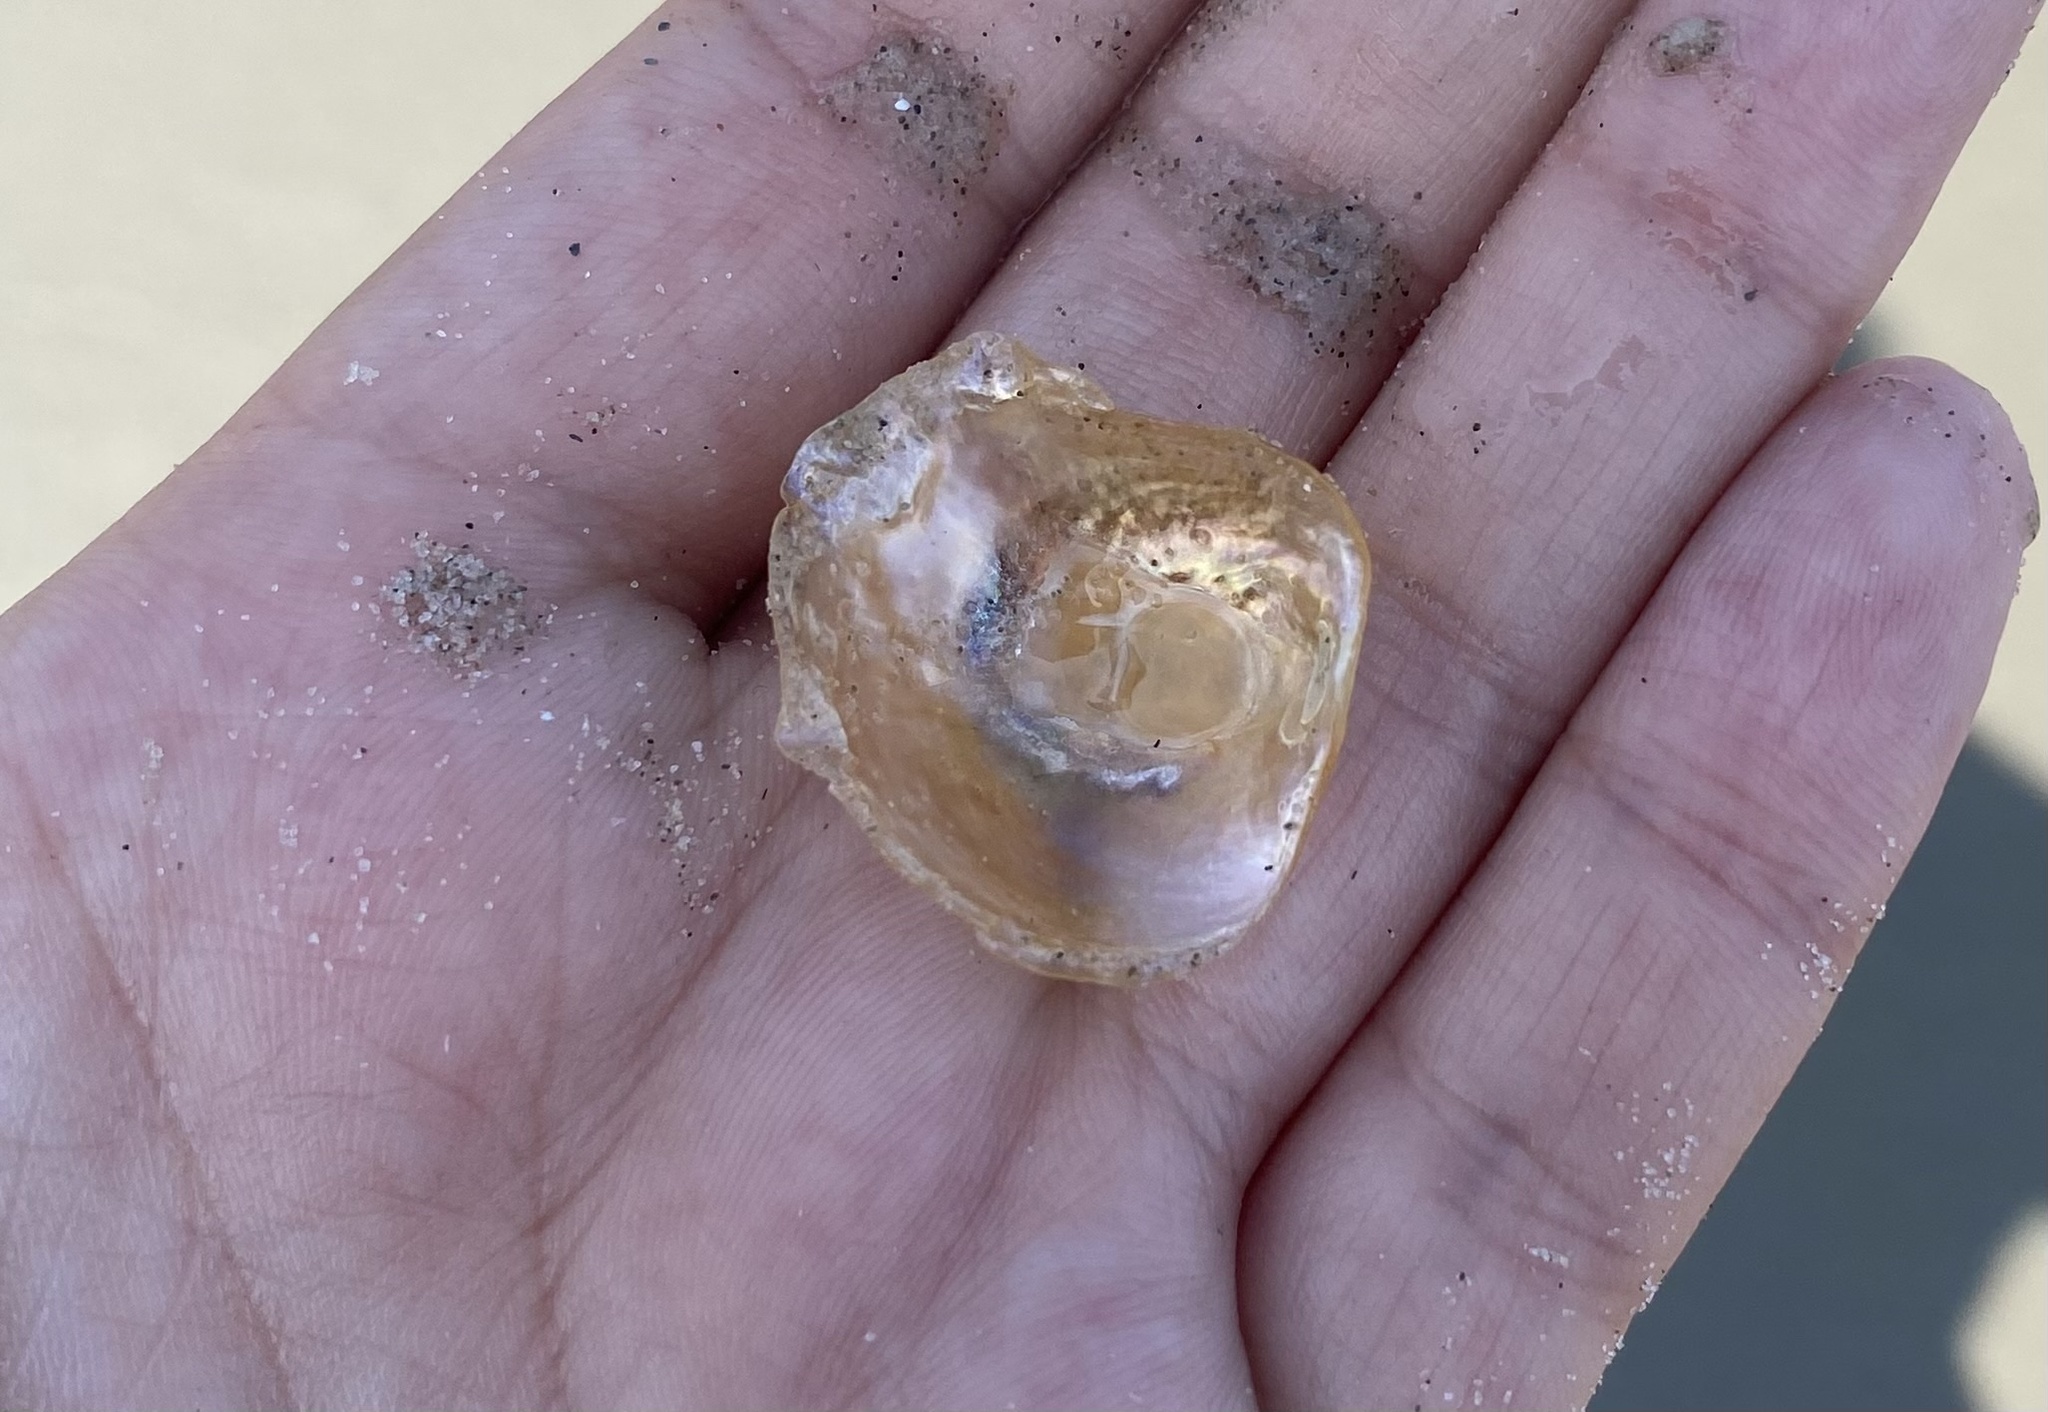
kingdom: Animalia
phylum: Mollusca
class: Bivalvia
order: Pectinida
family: Anomiidae
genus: Anomia
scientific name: Anomia simplex
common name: Common jingle shell
